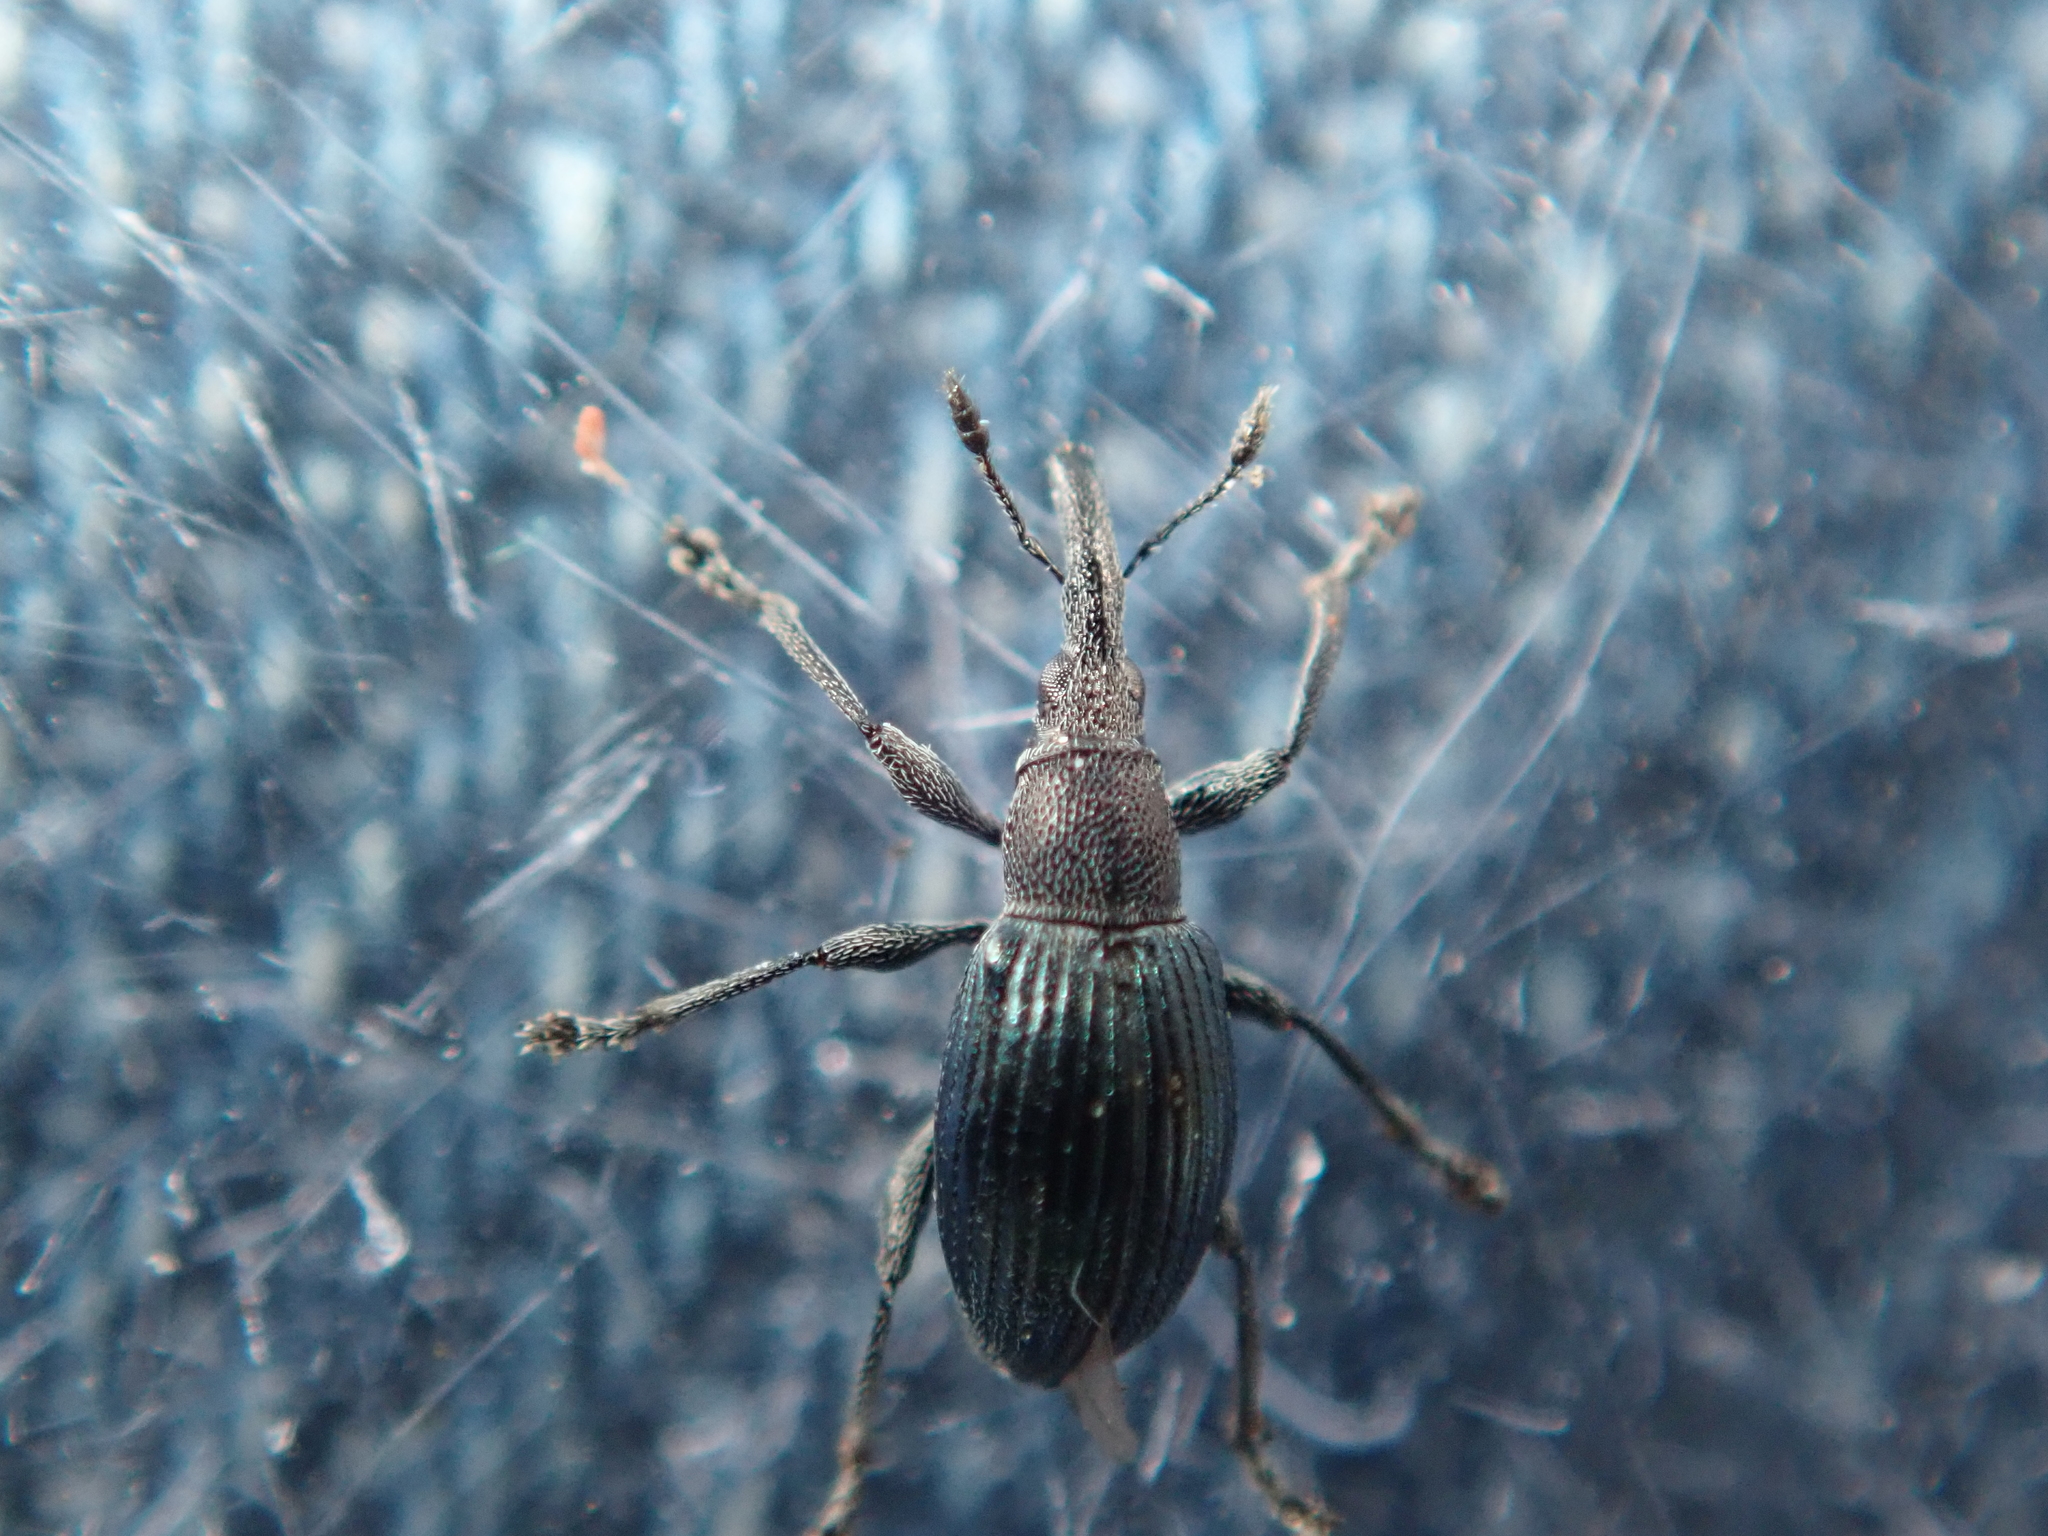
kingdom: Animalia
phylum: Arthropoda
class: Insecta
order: Coleoptera
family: Apionidae
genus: Aspidapion
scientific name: Aspidapion validum
